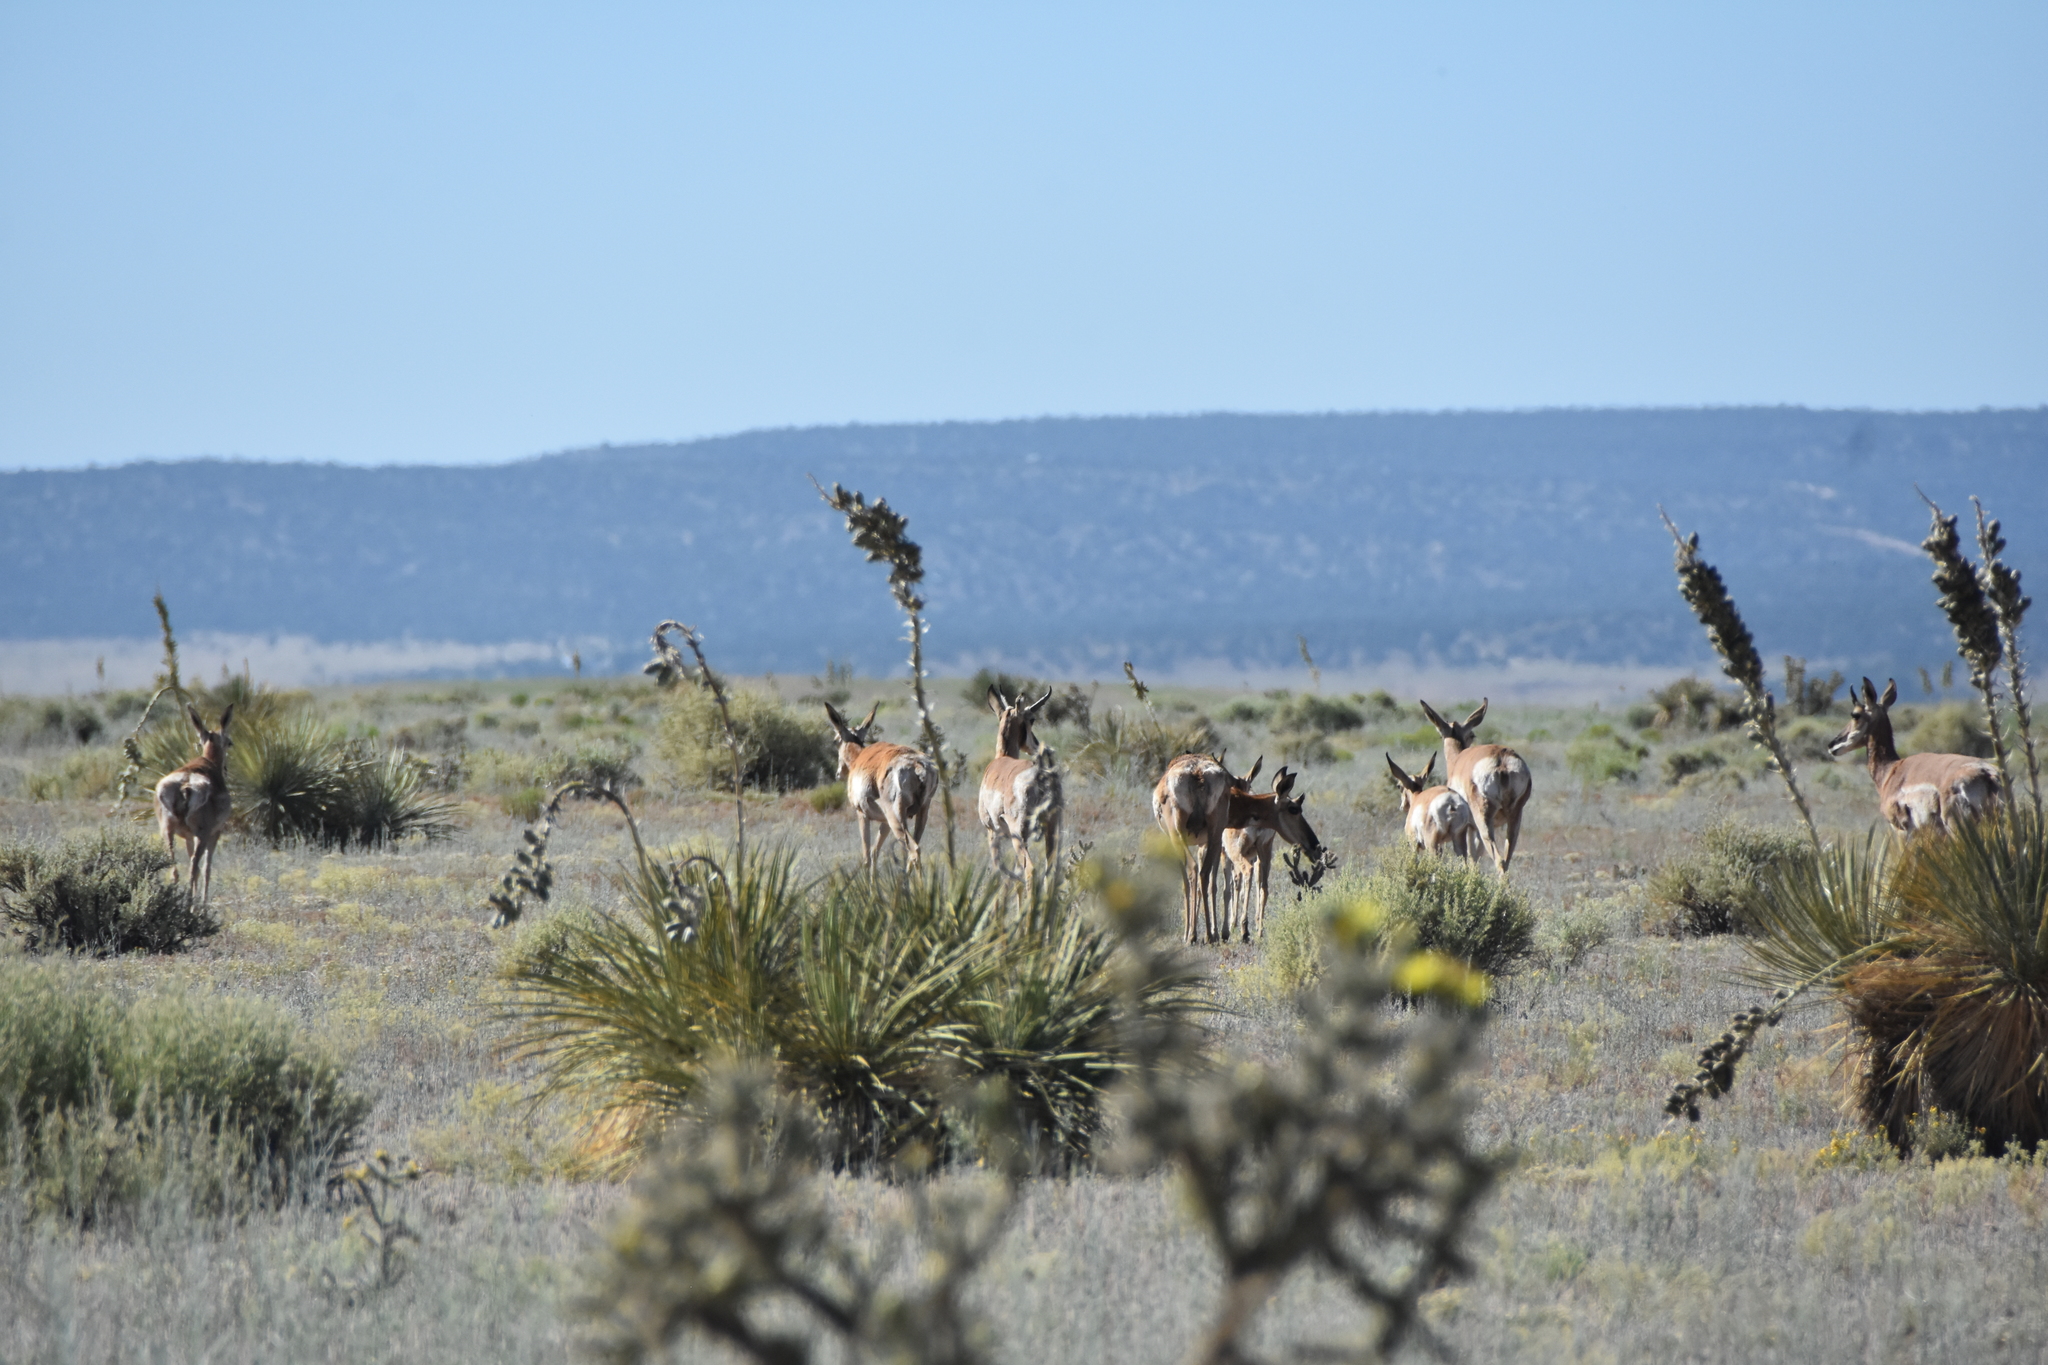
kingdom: Animalia
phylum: Chordata
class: Mammalia
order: Artiodactyla
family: Antilocapridae
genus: Antilocapra
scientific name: Antilocapra americana
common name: Pronghorn
